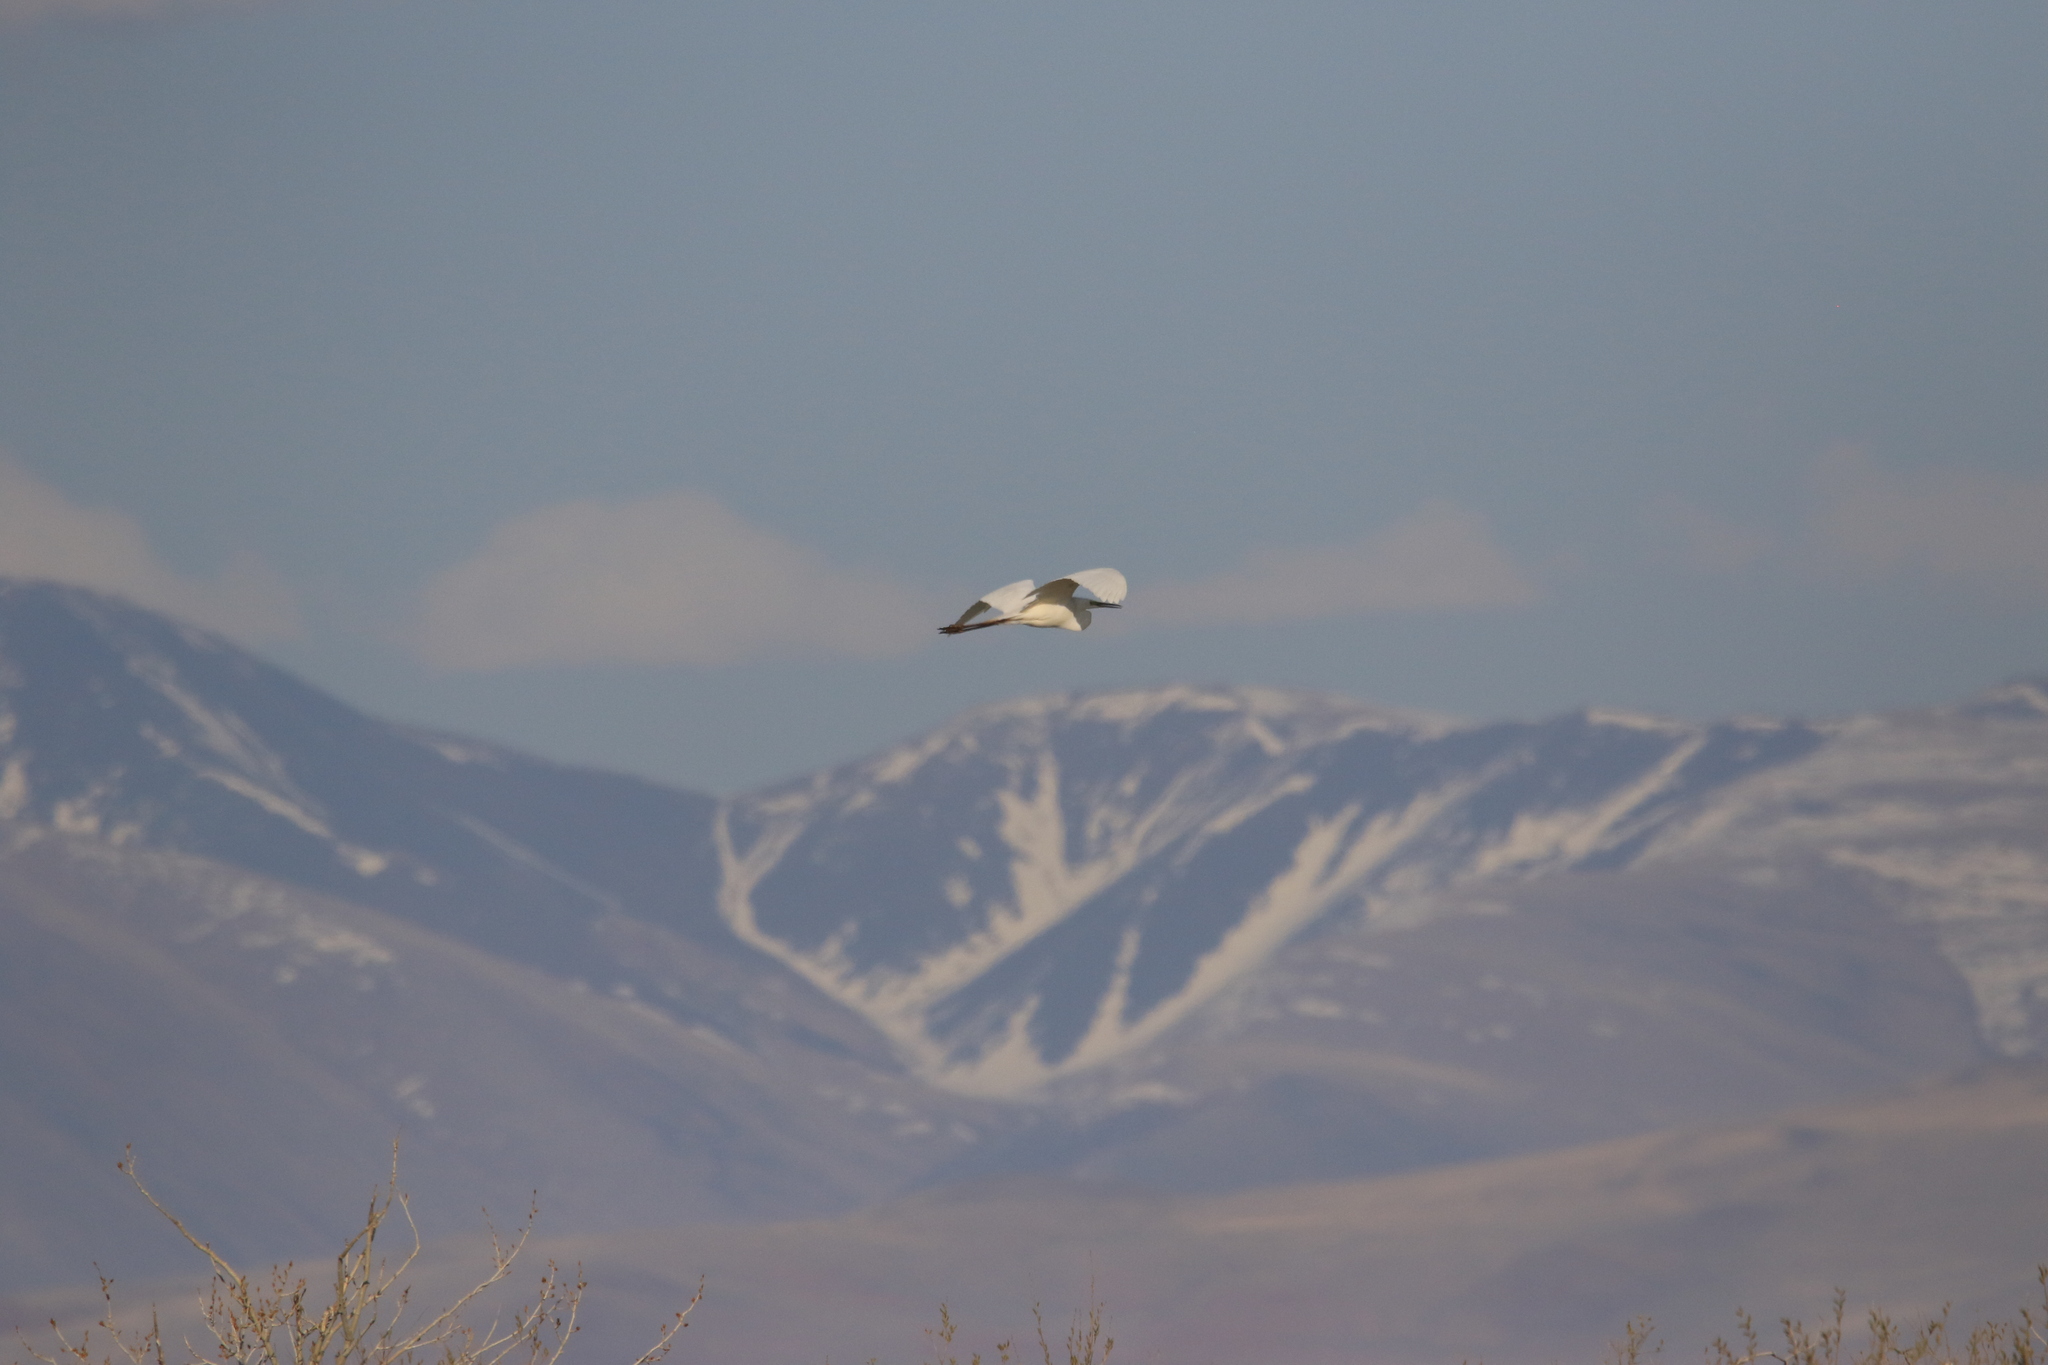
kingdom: Animalia
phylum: Chordata
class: Aves
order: Pelecaniformes
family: Ardeidae
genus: Ardea
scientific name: Ardea alba
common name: Great egret
